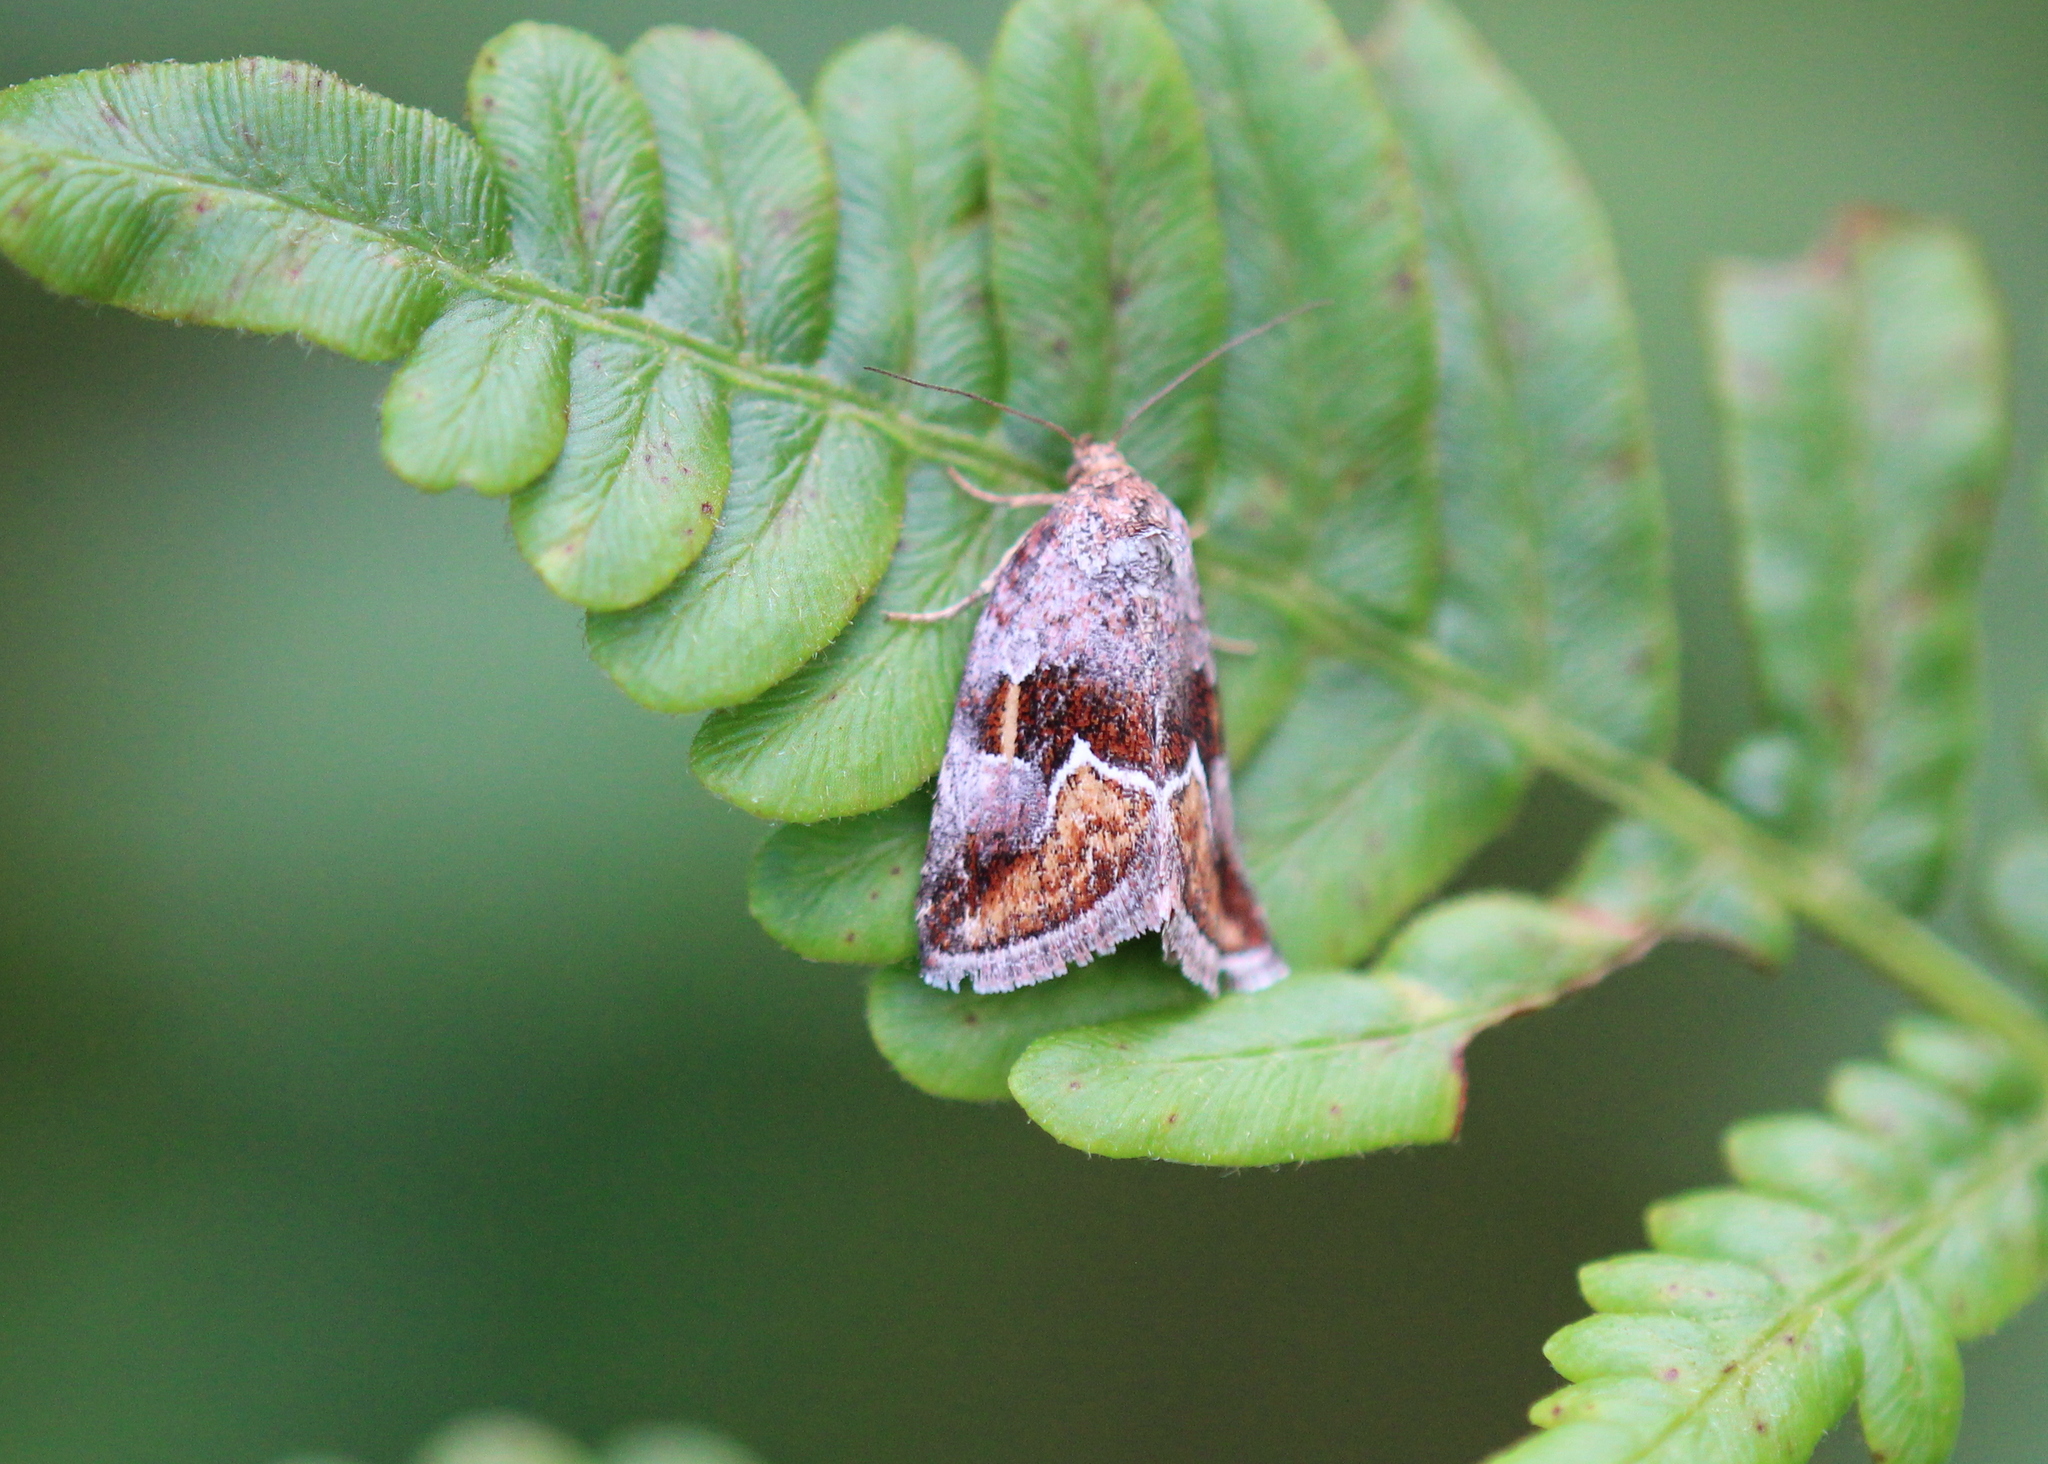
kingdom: Animalia
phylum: Arthropoda
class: Insecta
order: Lepidoptera
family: Noctuidae
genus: Deltote
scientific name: Deltote bellicula
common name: Bog glyph
